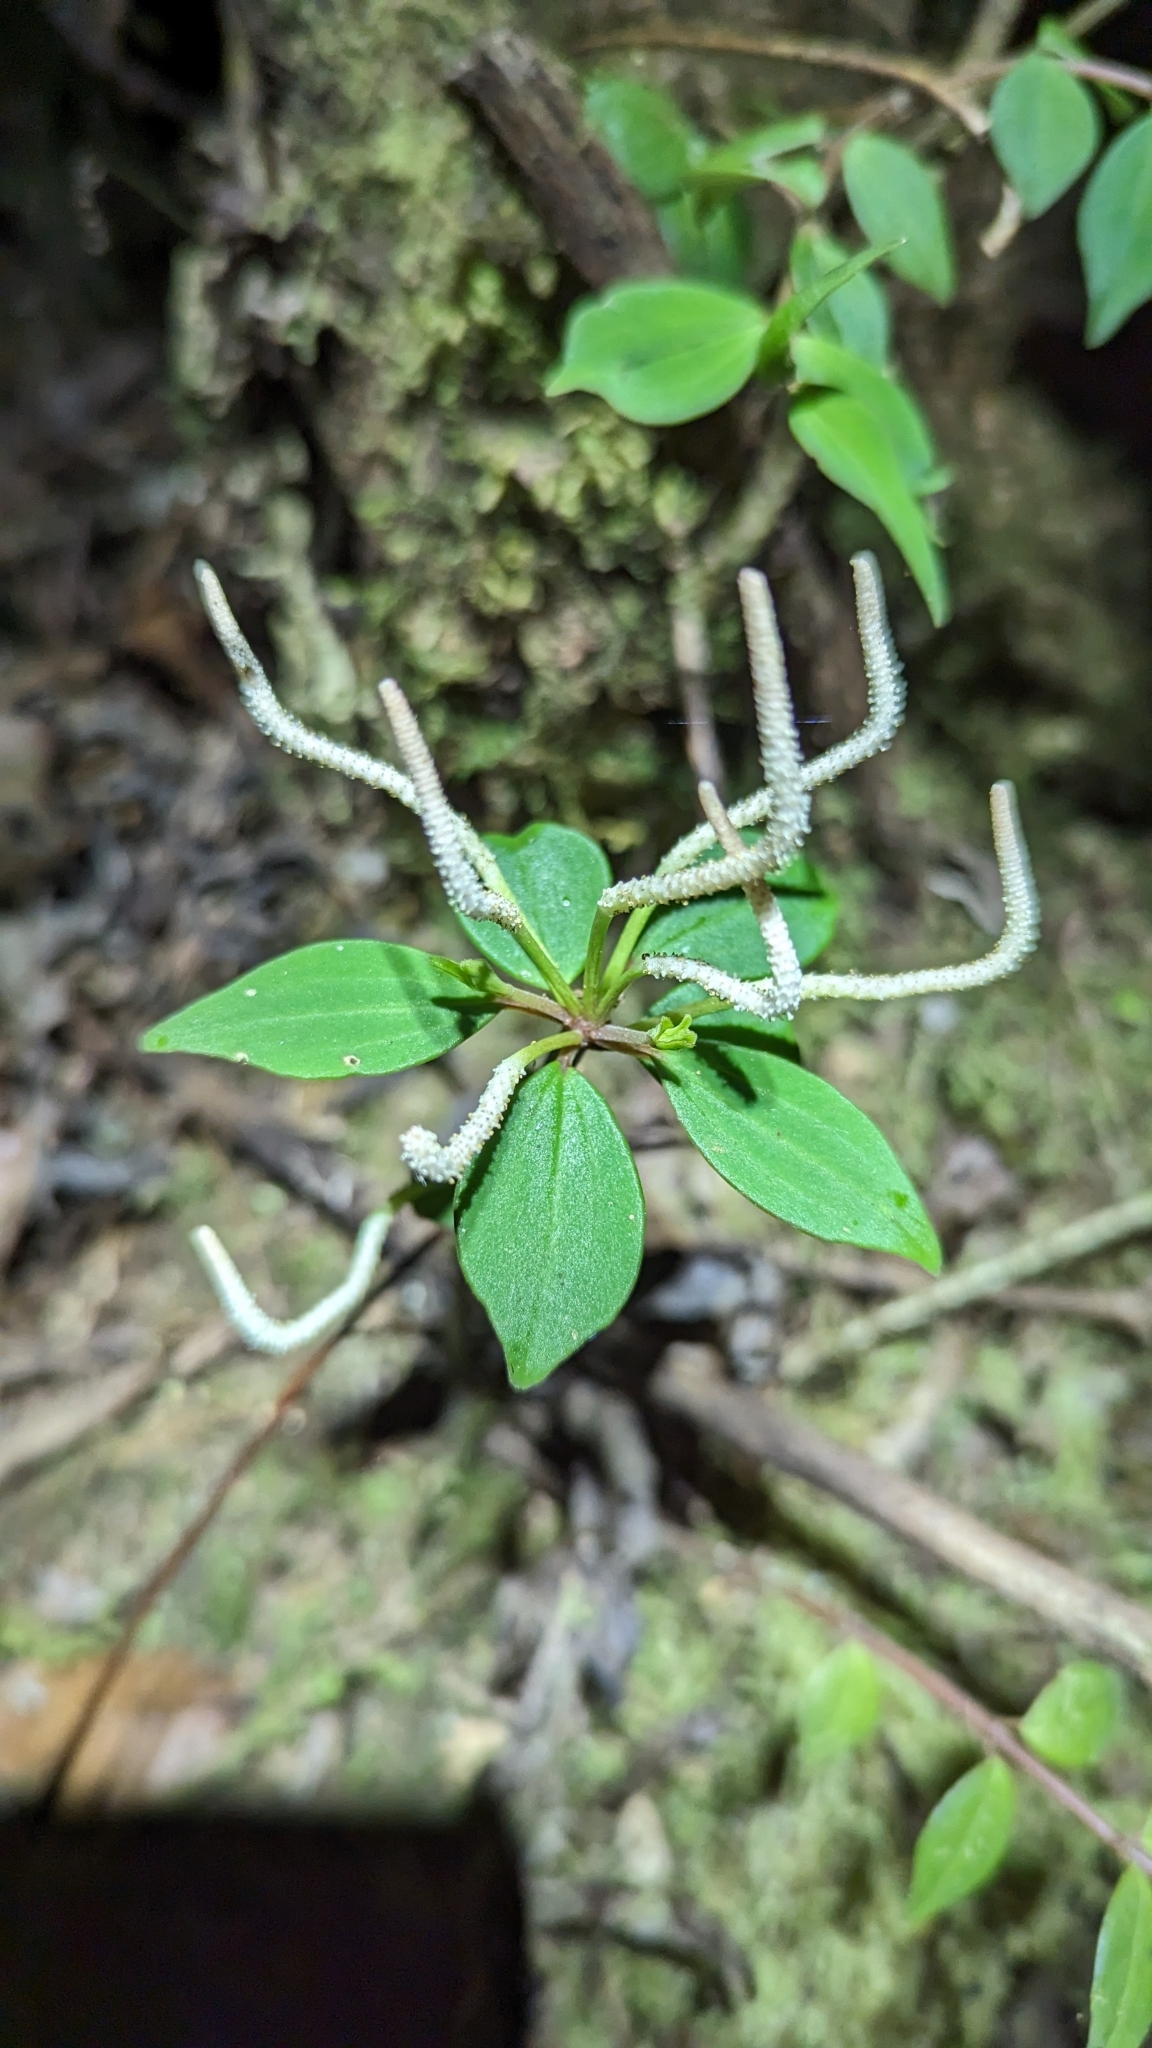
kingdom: Plantae
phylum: Tracheophyta
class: Magnoliopsida
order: Piperales
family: Piperaceae
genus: Peperomia
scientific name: Peperomia palmana
